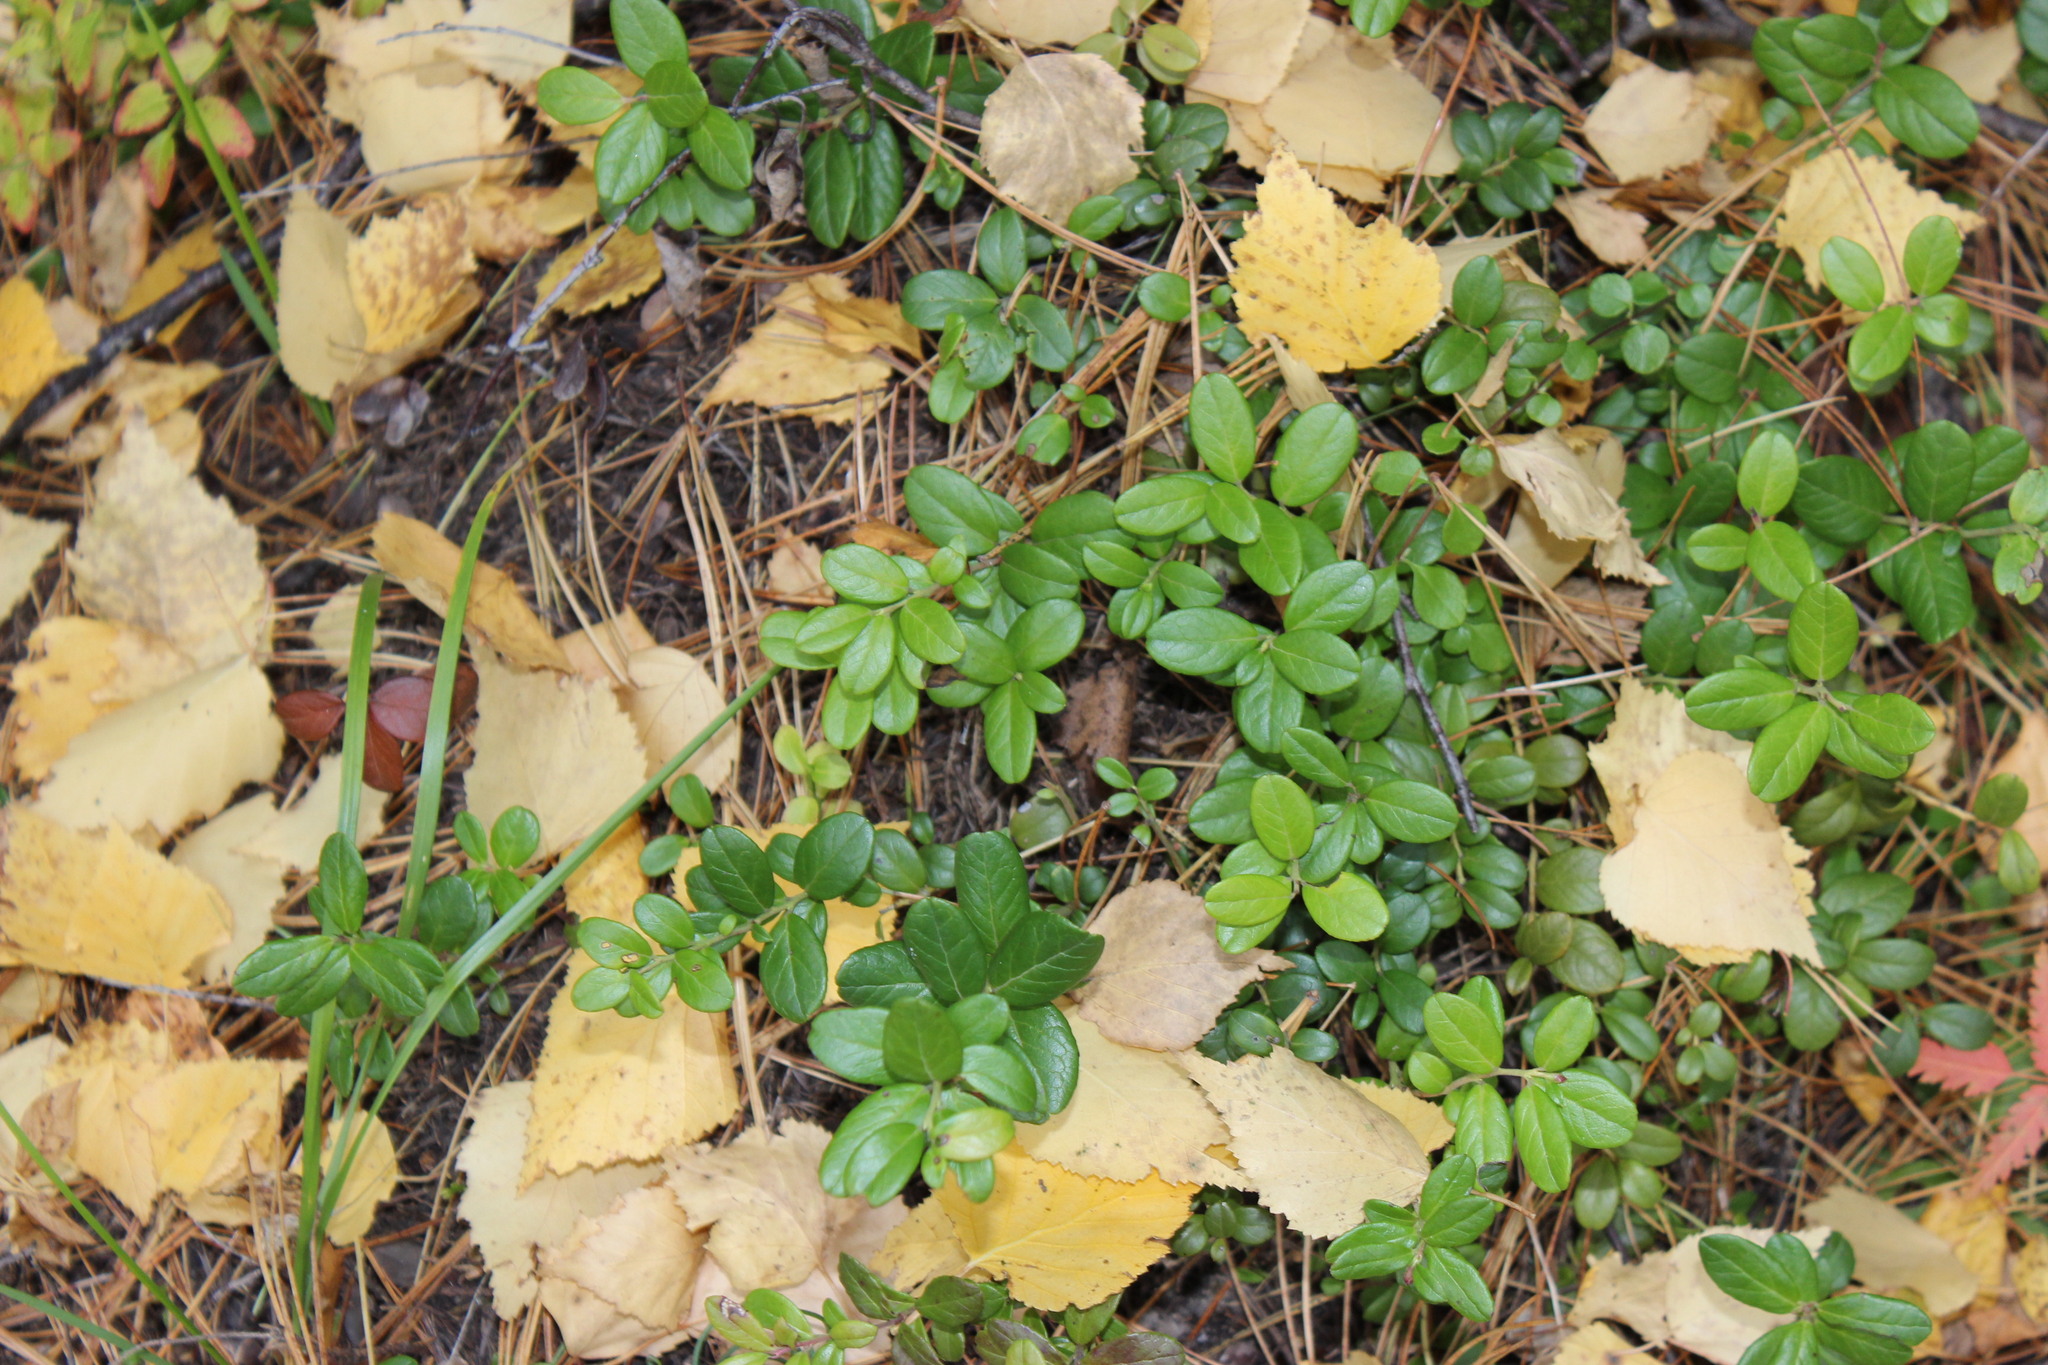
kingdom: Plantae
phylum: Tracheophyta
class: Magnoliopsida
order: Ericales
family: Ericaceae
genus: Vaccinium
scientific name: Vaccinium vitis-idaea
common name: Cowberry
